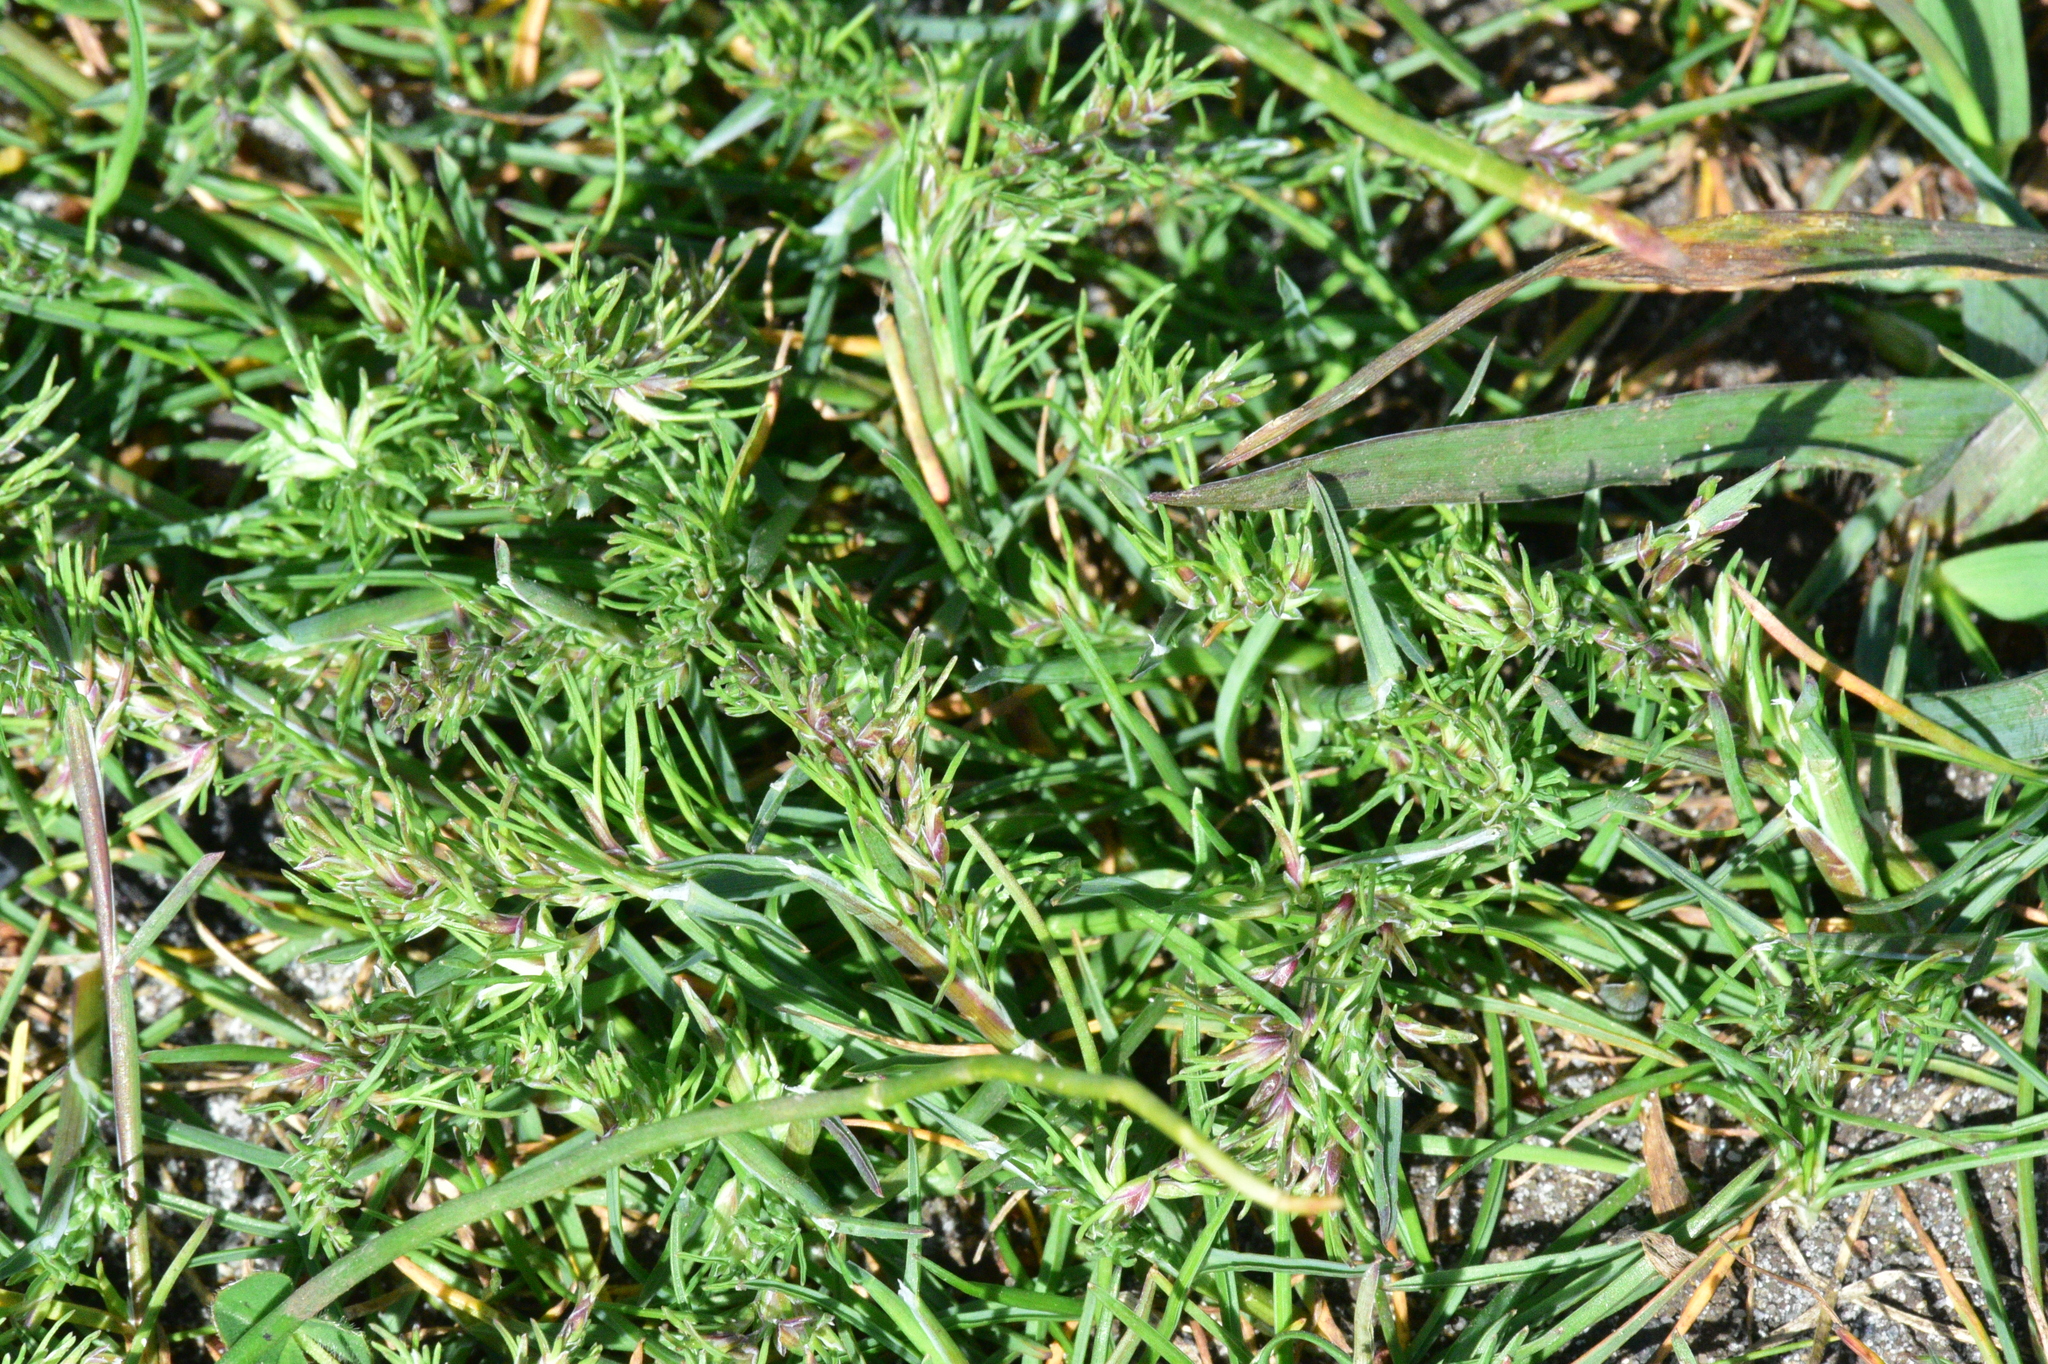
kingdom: Plantae
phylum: Tracheophyta
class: Liliopsida
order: Poales
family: Poaceae
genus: Poa
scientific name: Poa bulbosa
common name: Bulbous bluegrass
